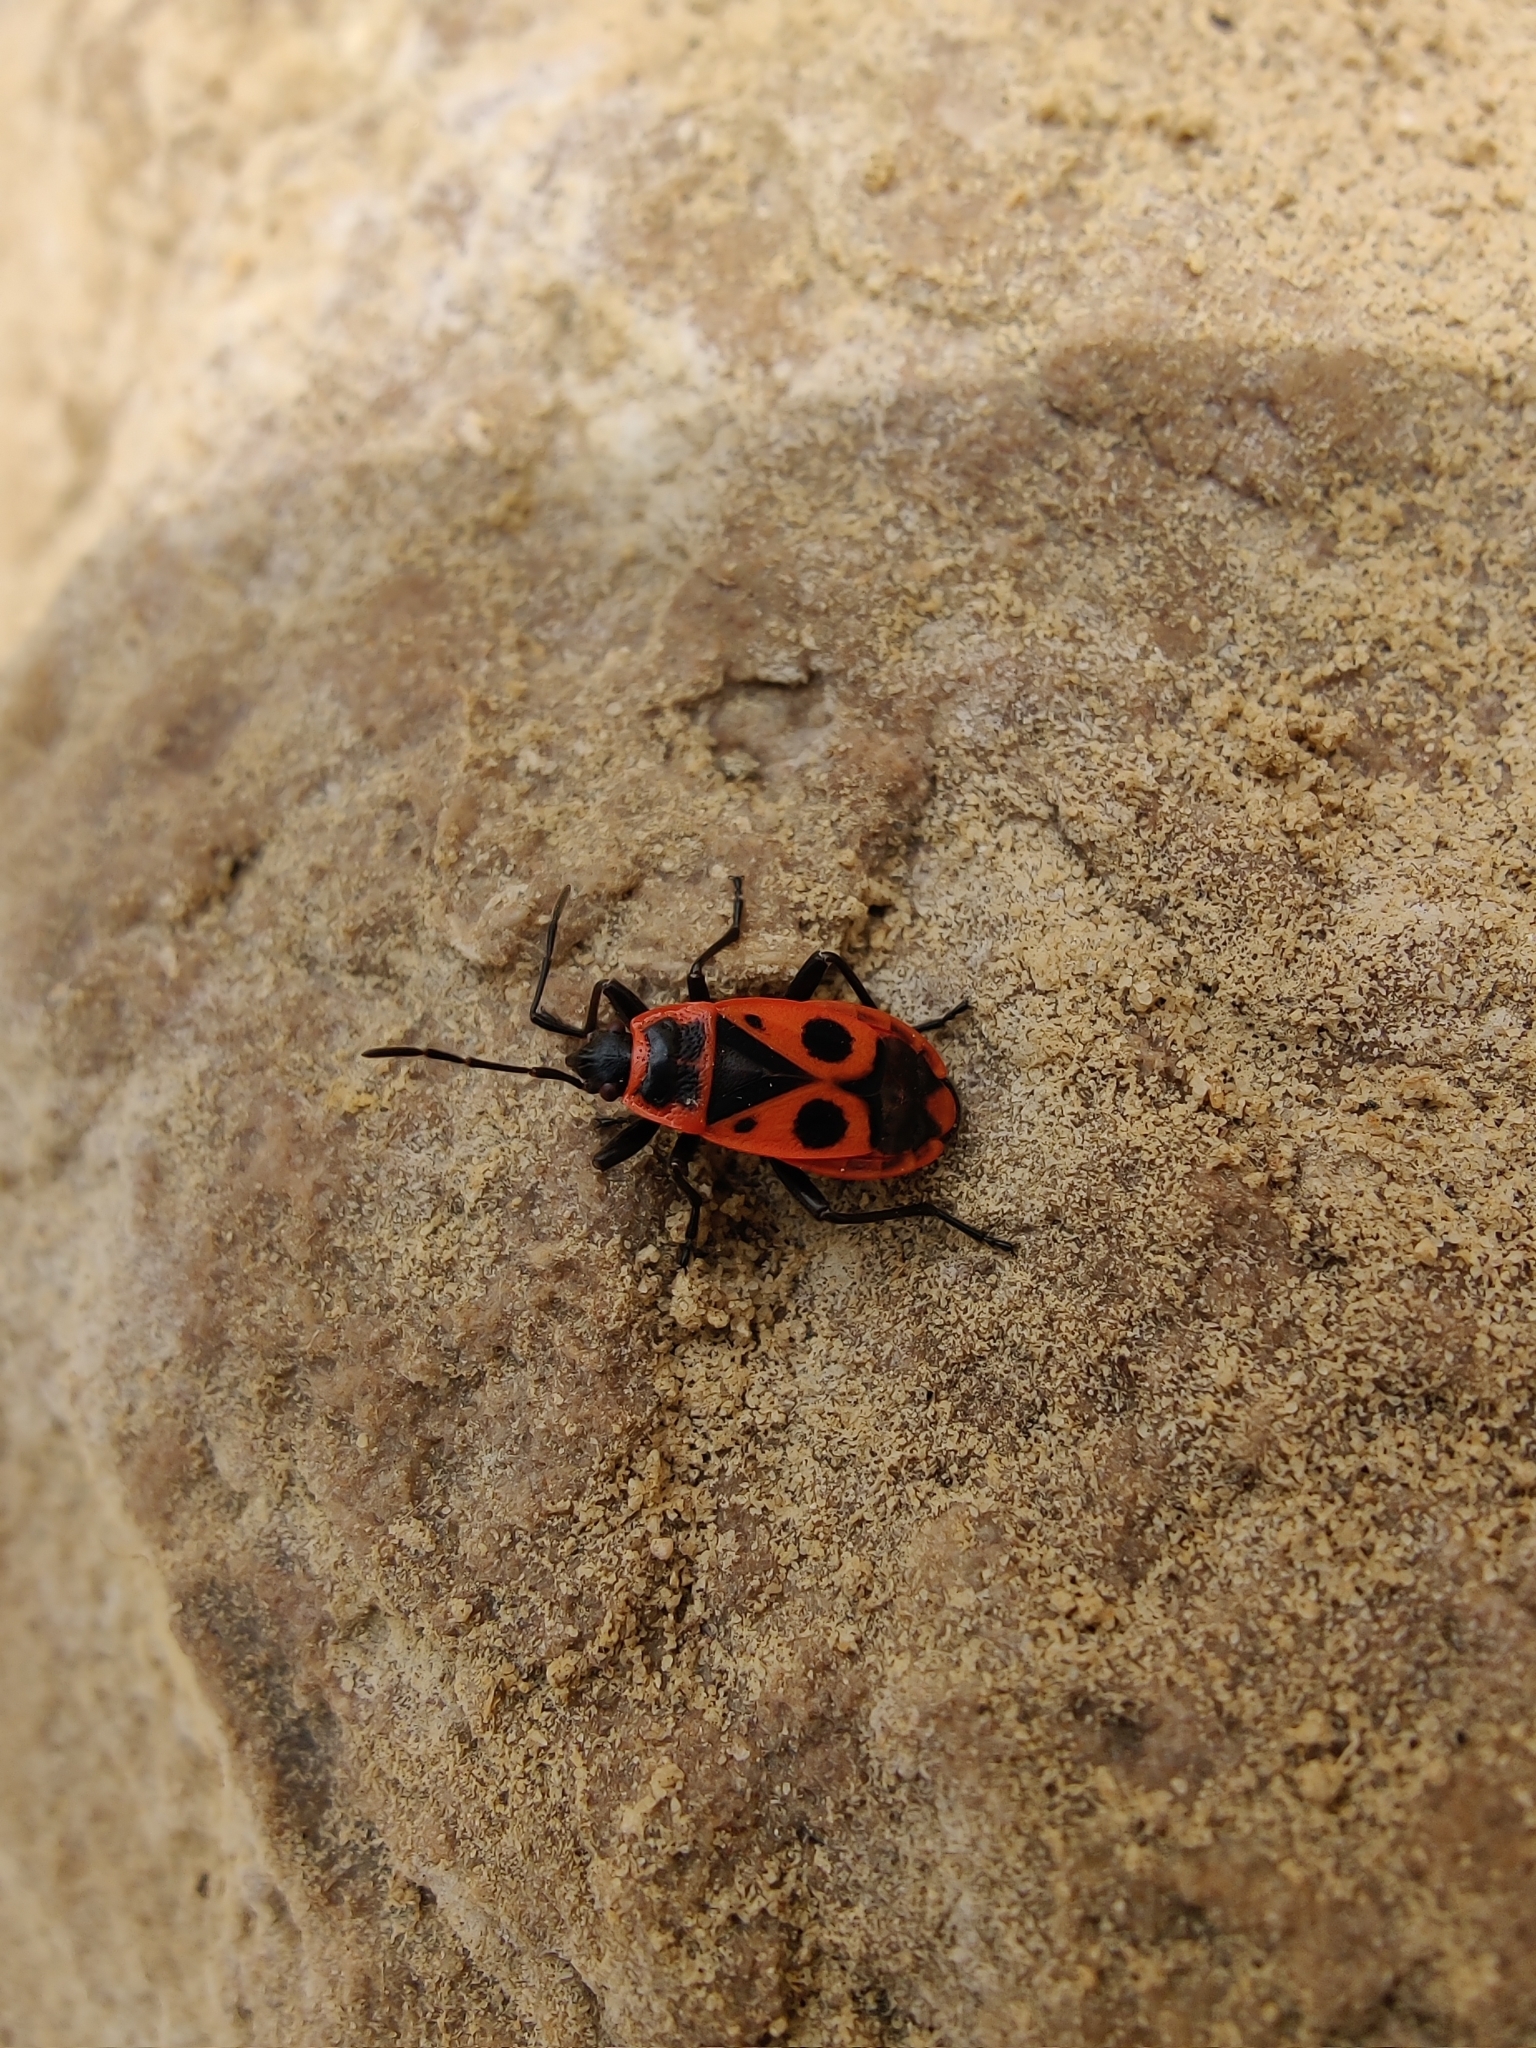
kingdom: Animalia
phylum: Arthropoda
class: Insecta
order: Hemiptera
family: Pyrrhocoridae
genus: Pyrrhocoris
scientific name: Pyrrhocoris apterus
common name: Firebug
